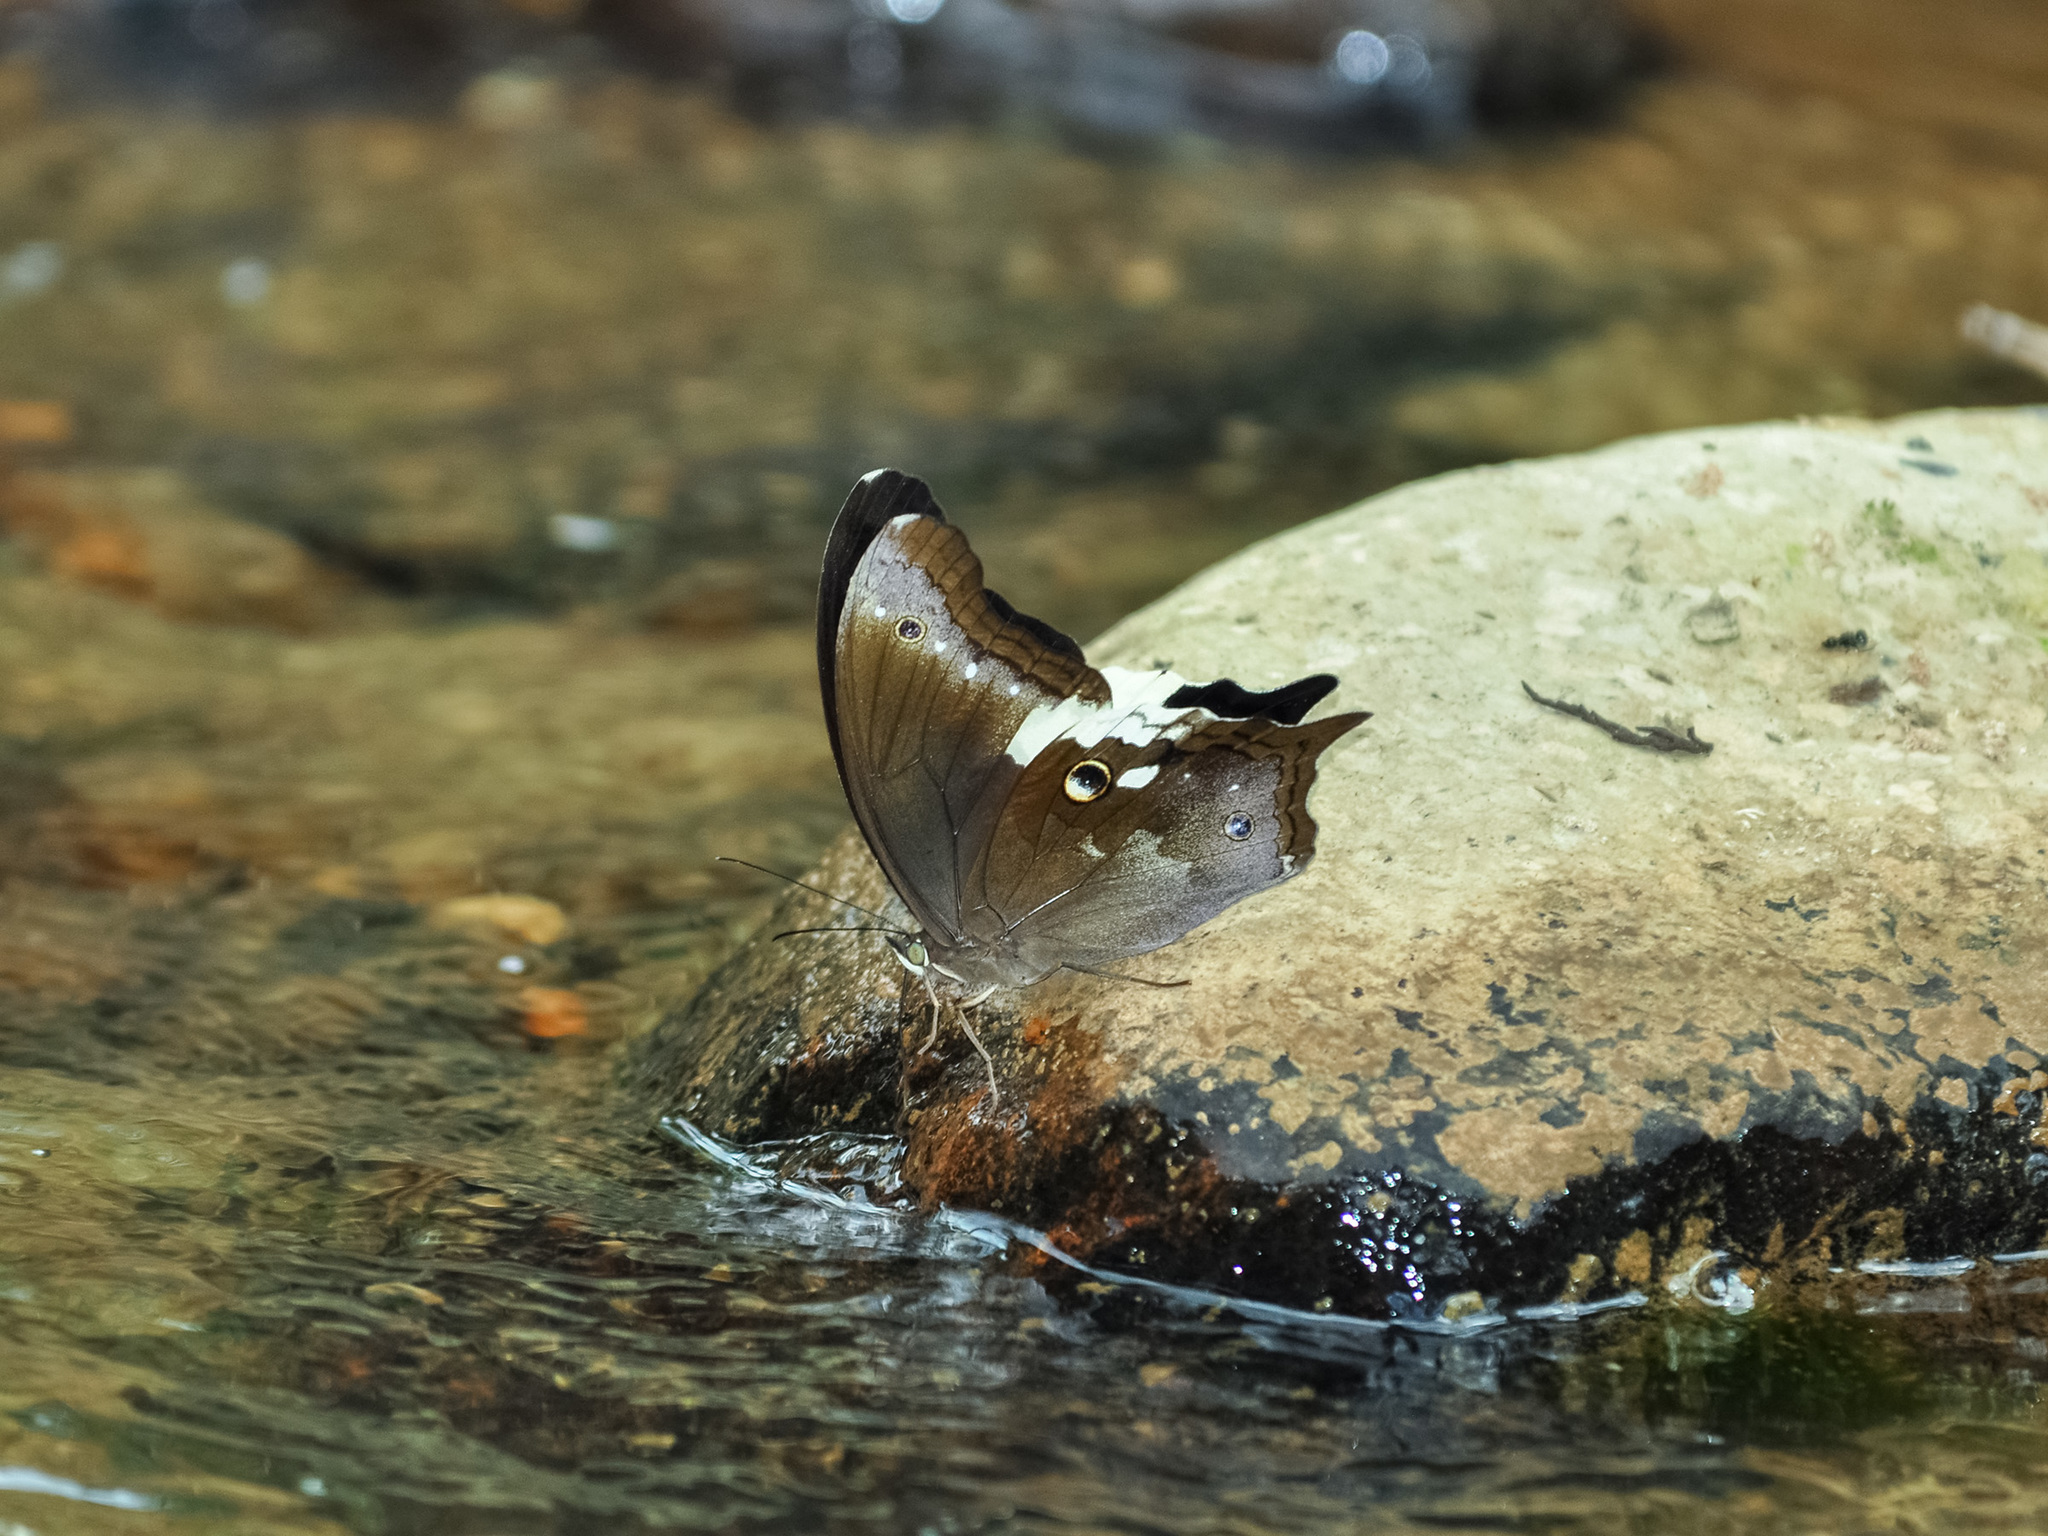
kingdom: Animalia
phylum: Arthropoda
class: Insecta
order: Lepidoptera
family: Nymphalidae
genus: Neorina
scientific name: Neorina lowii
